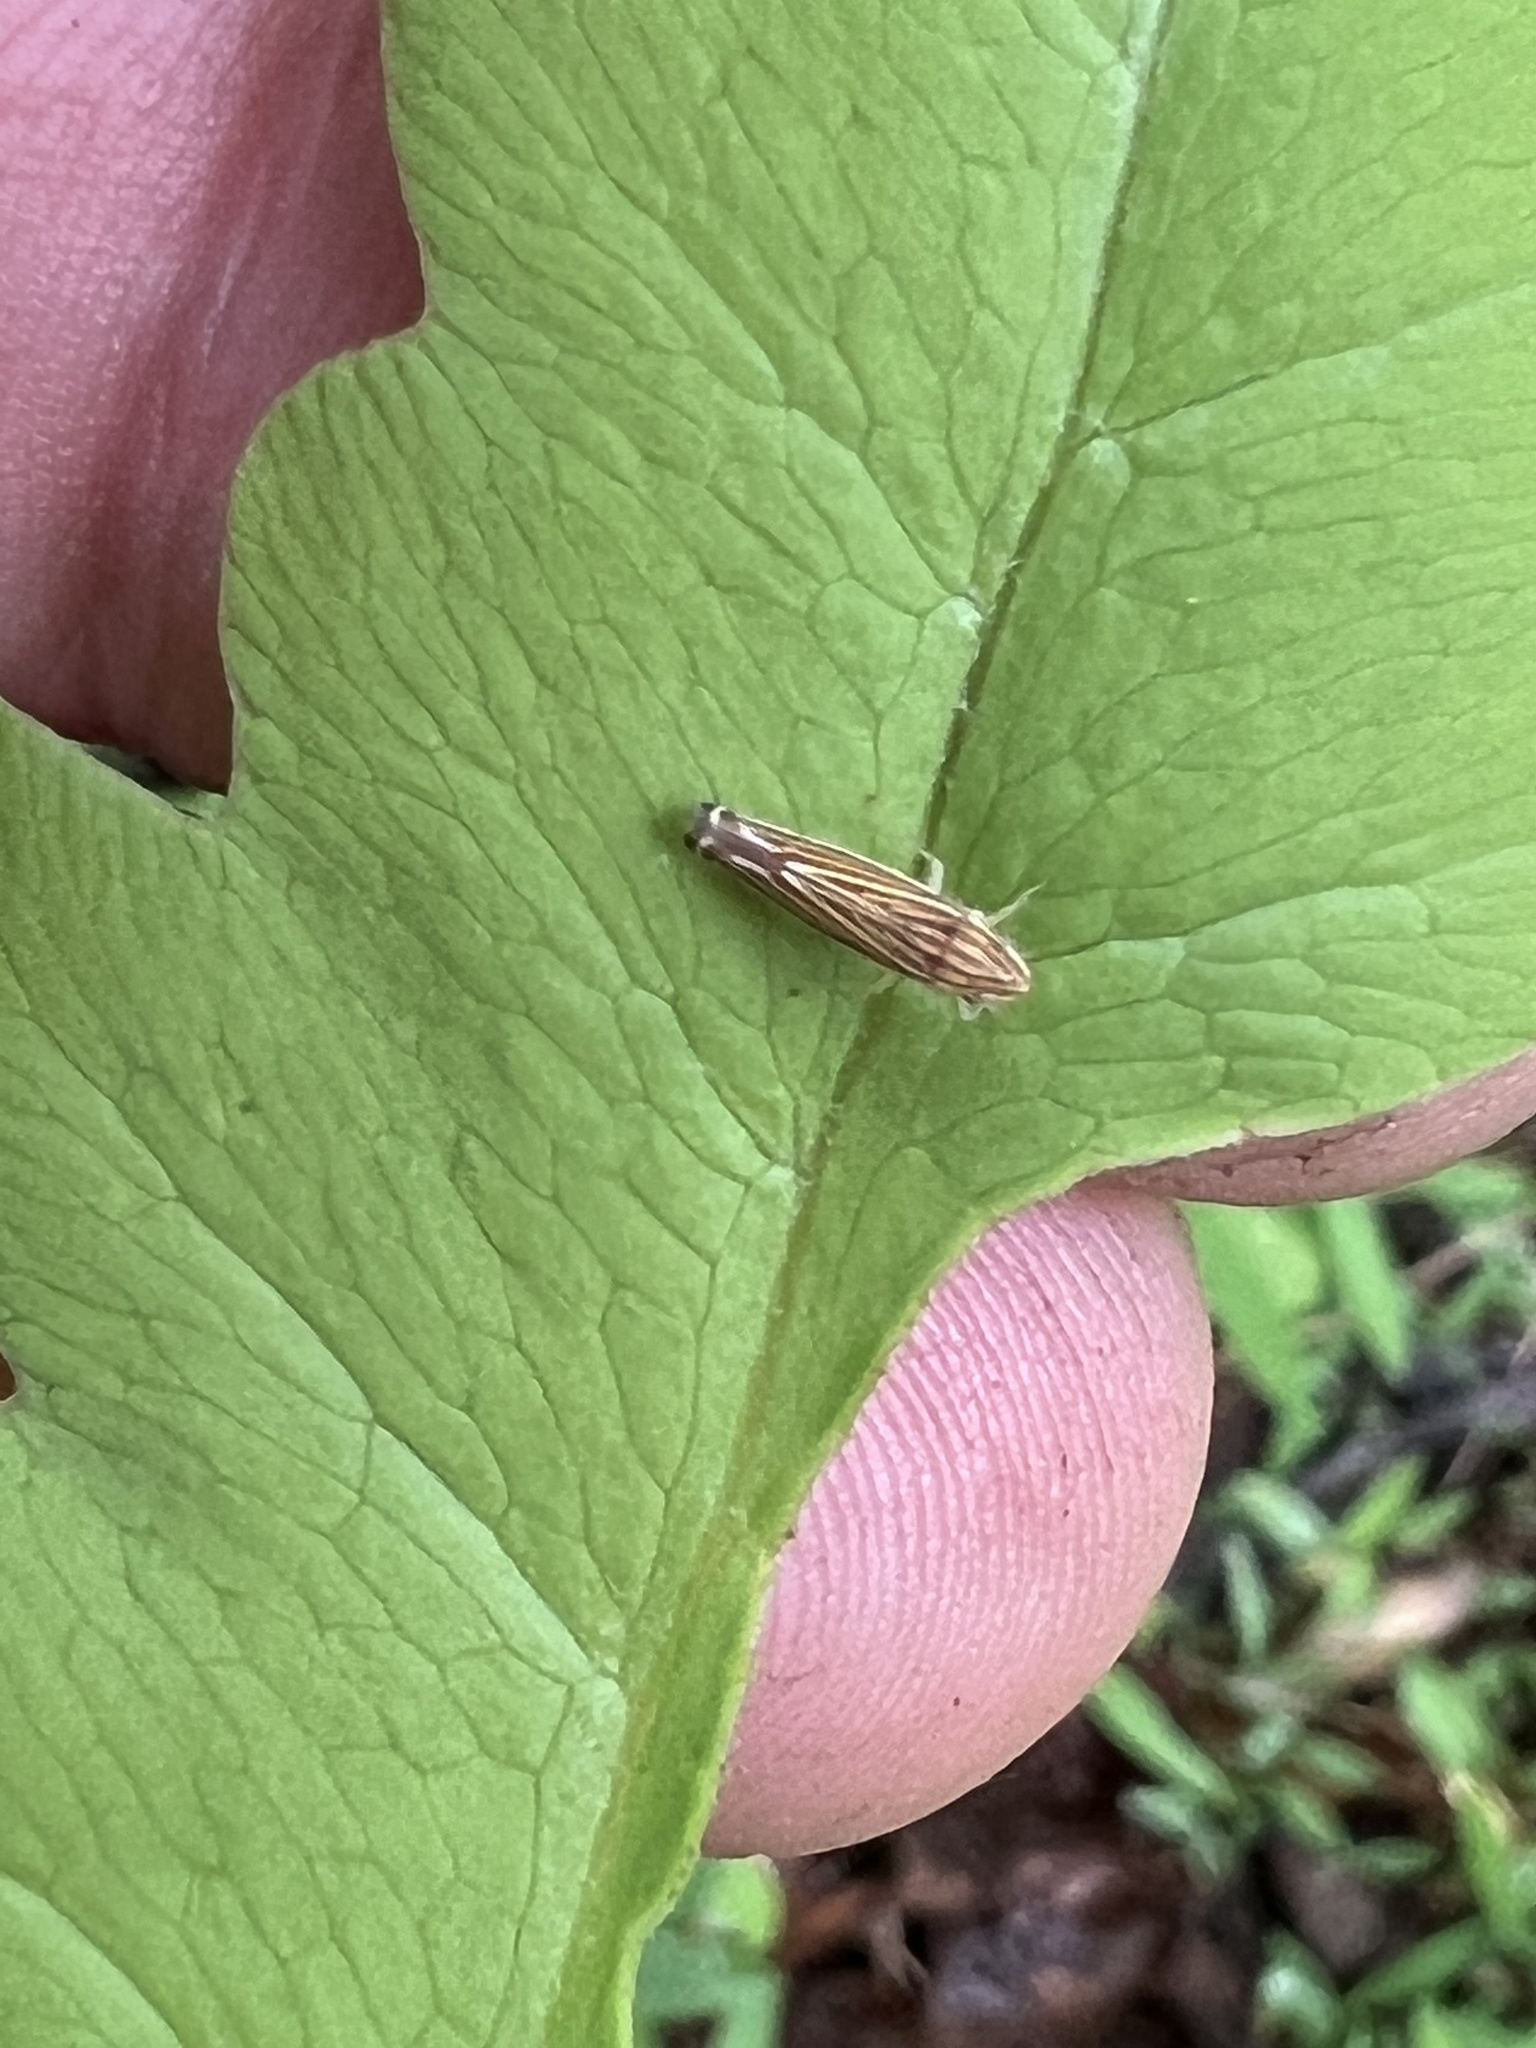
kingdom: Animalia
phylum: Arthropoda
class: Insecta
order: Hemiptera
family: Cicadellidae
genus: Sibovia
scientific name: Sibovia occatoria
